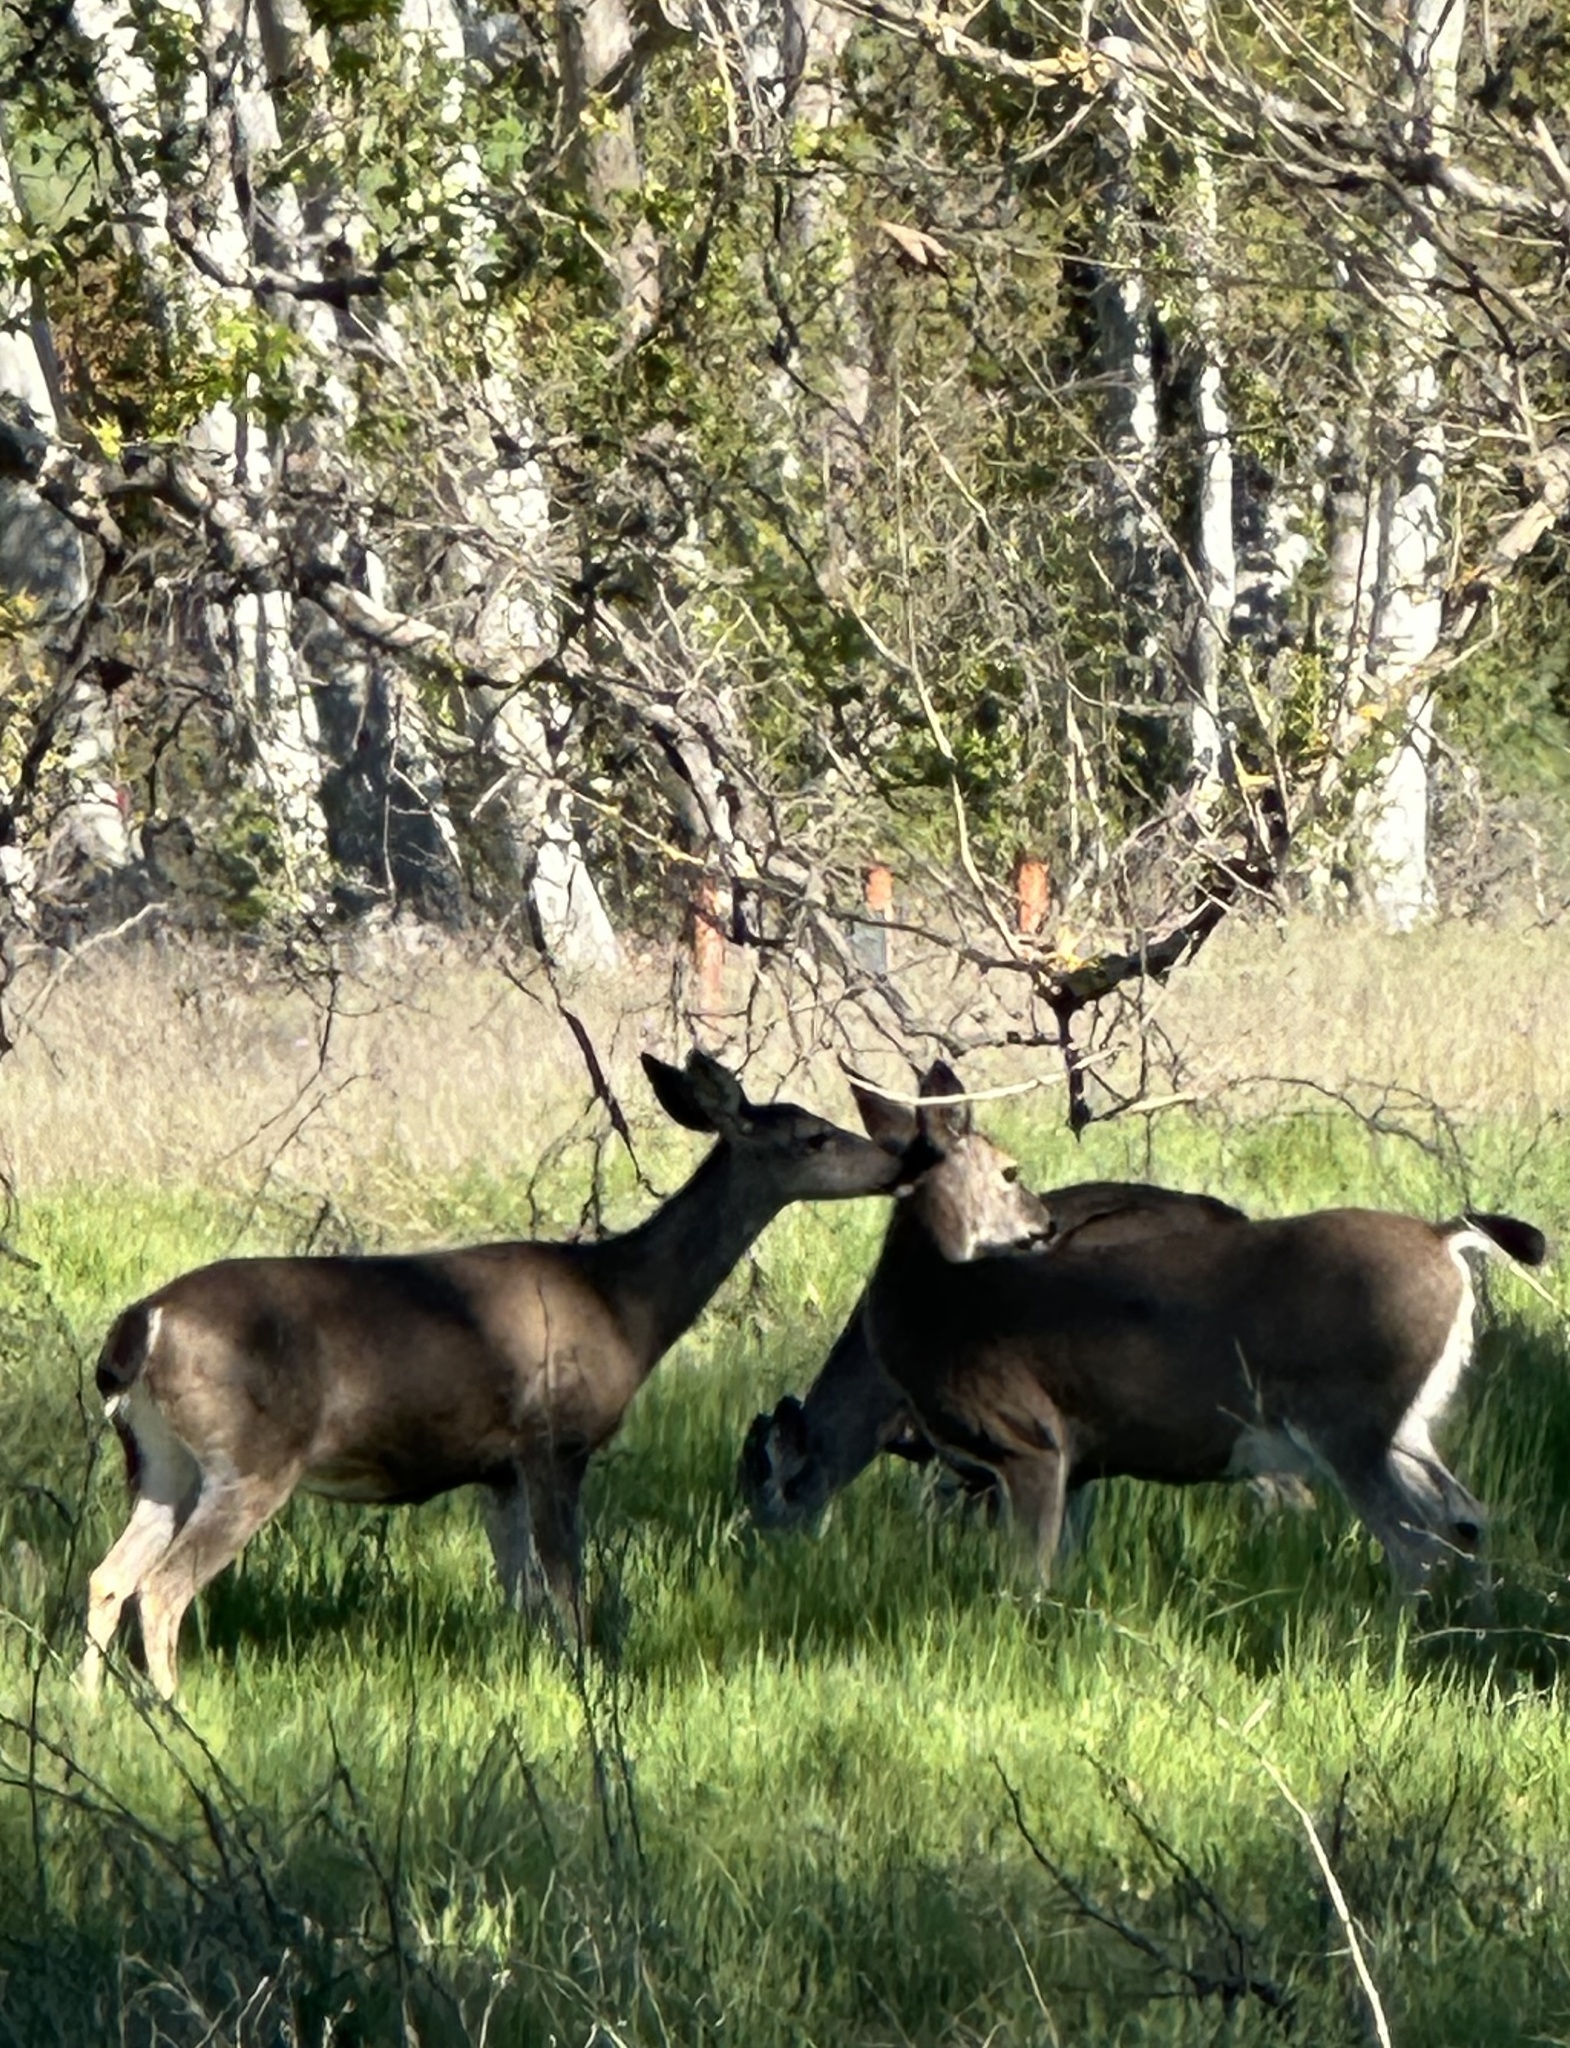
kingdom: Animalia
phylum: Chordata
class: Mammalia
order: Artiodactyla
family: Cervidae
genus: Odocoileus
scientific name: Odocoileus hemionus
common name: Mule deer
